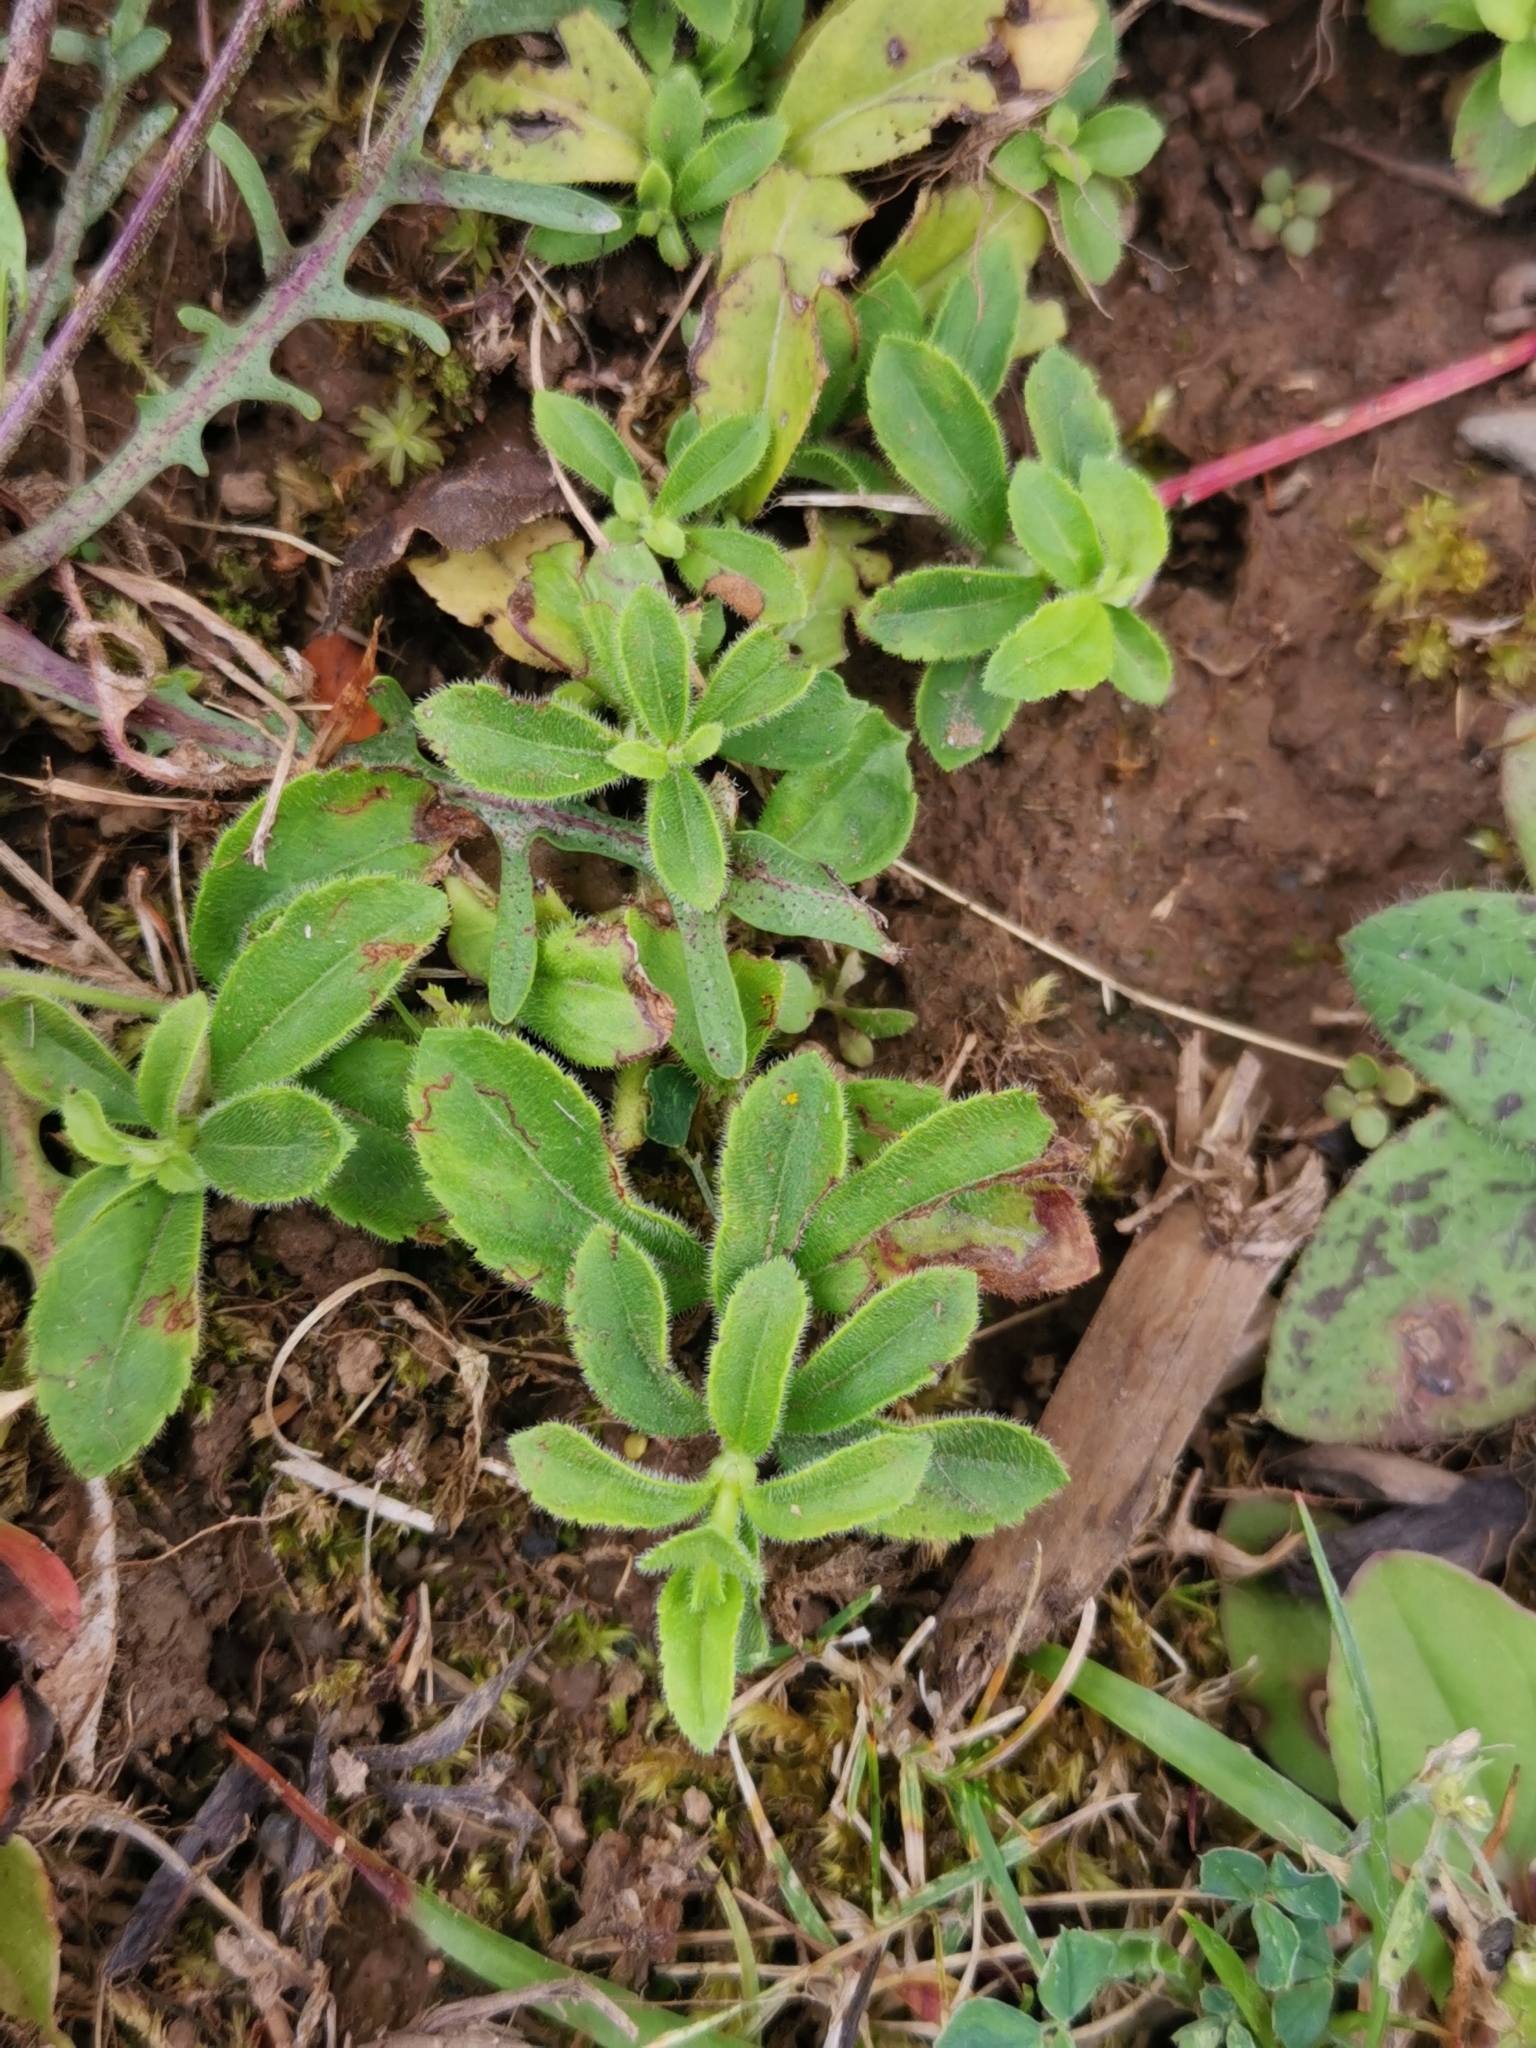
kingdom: Plantae
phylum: Tracheophyta
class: Magnoliopsida
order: Lamiales
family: Plantaginaceae
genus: Veronica
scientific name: Veronica officinalis
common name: Common speedwell
